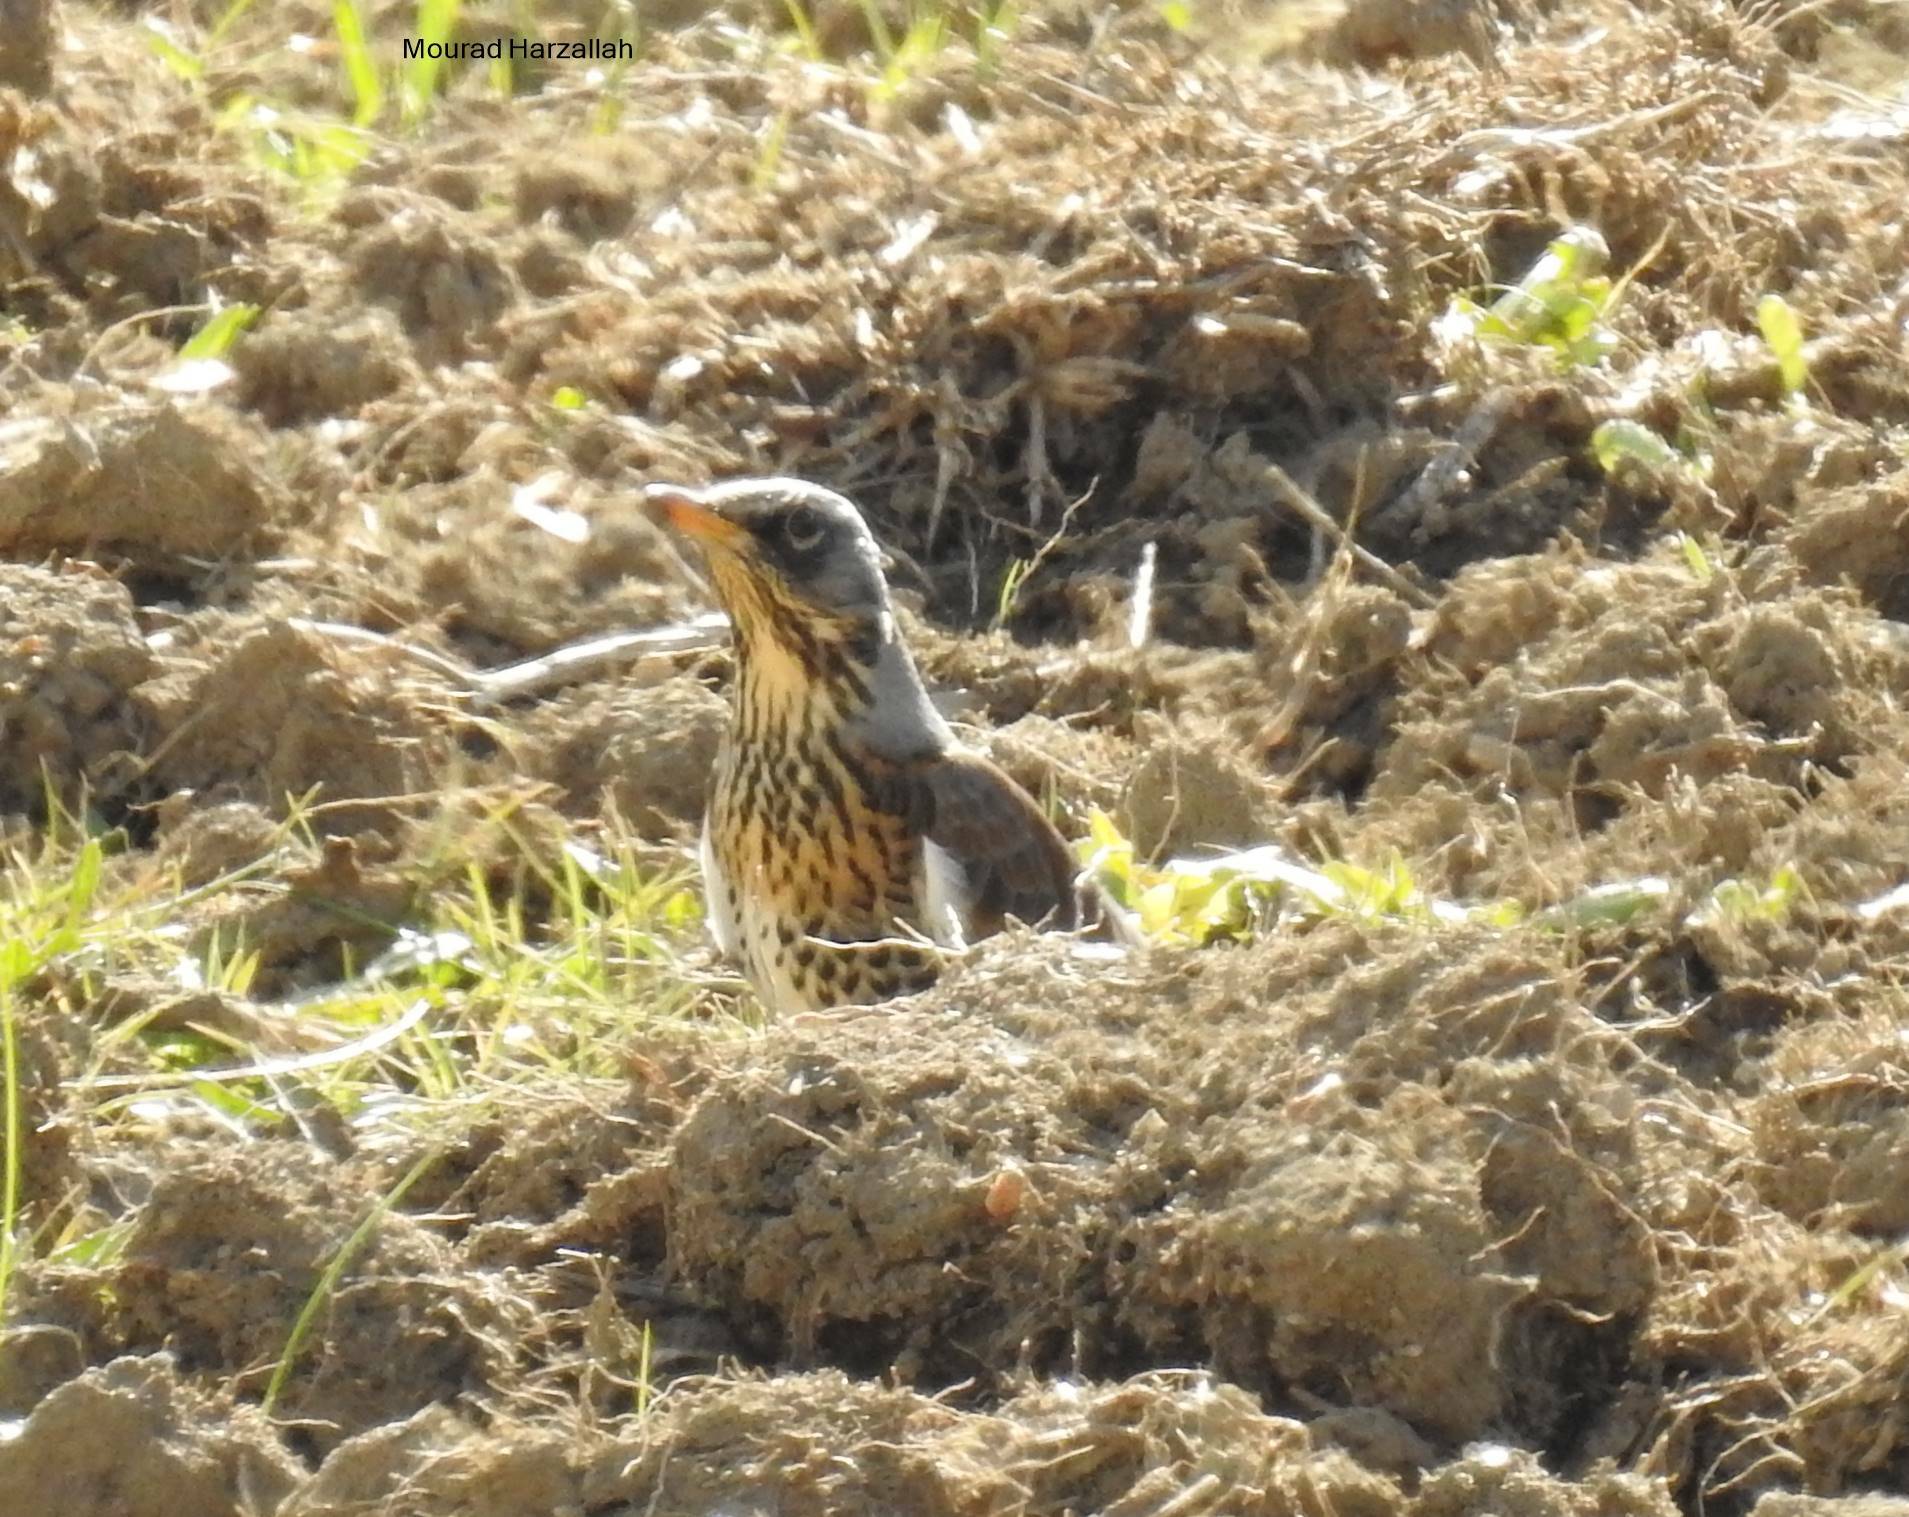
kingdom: Animalia
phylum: Chordata
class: Aves
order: Passeriformes
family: Turdidae
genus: Turdus
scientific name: Turdus pilaris
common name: Fieldfare
